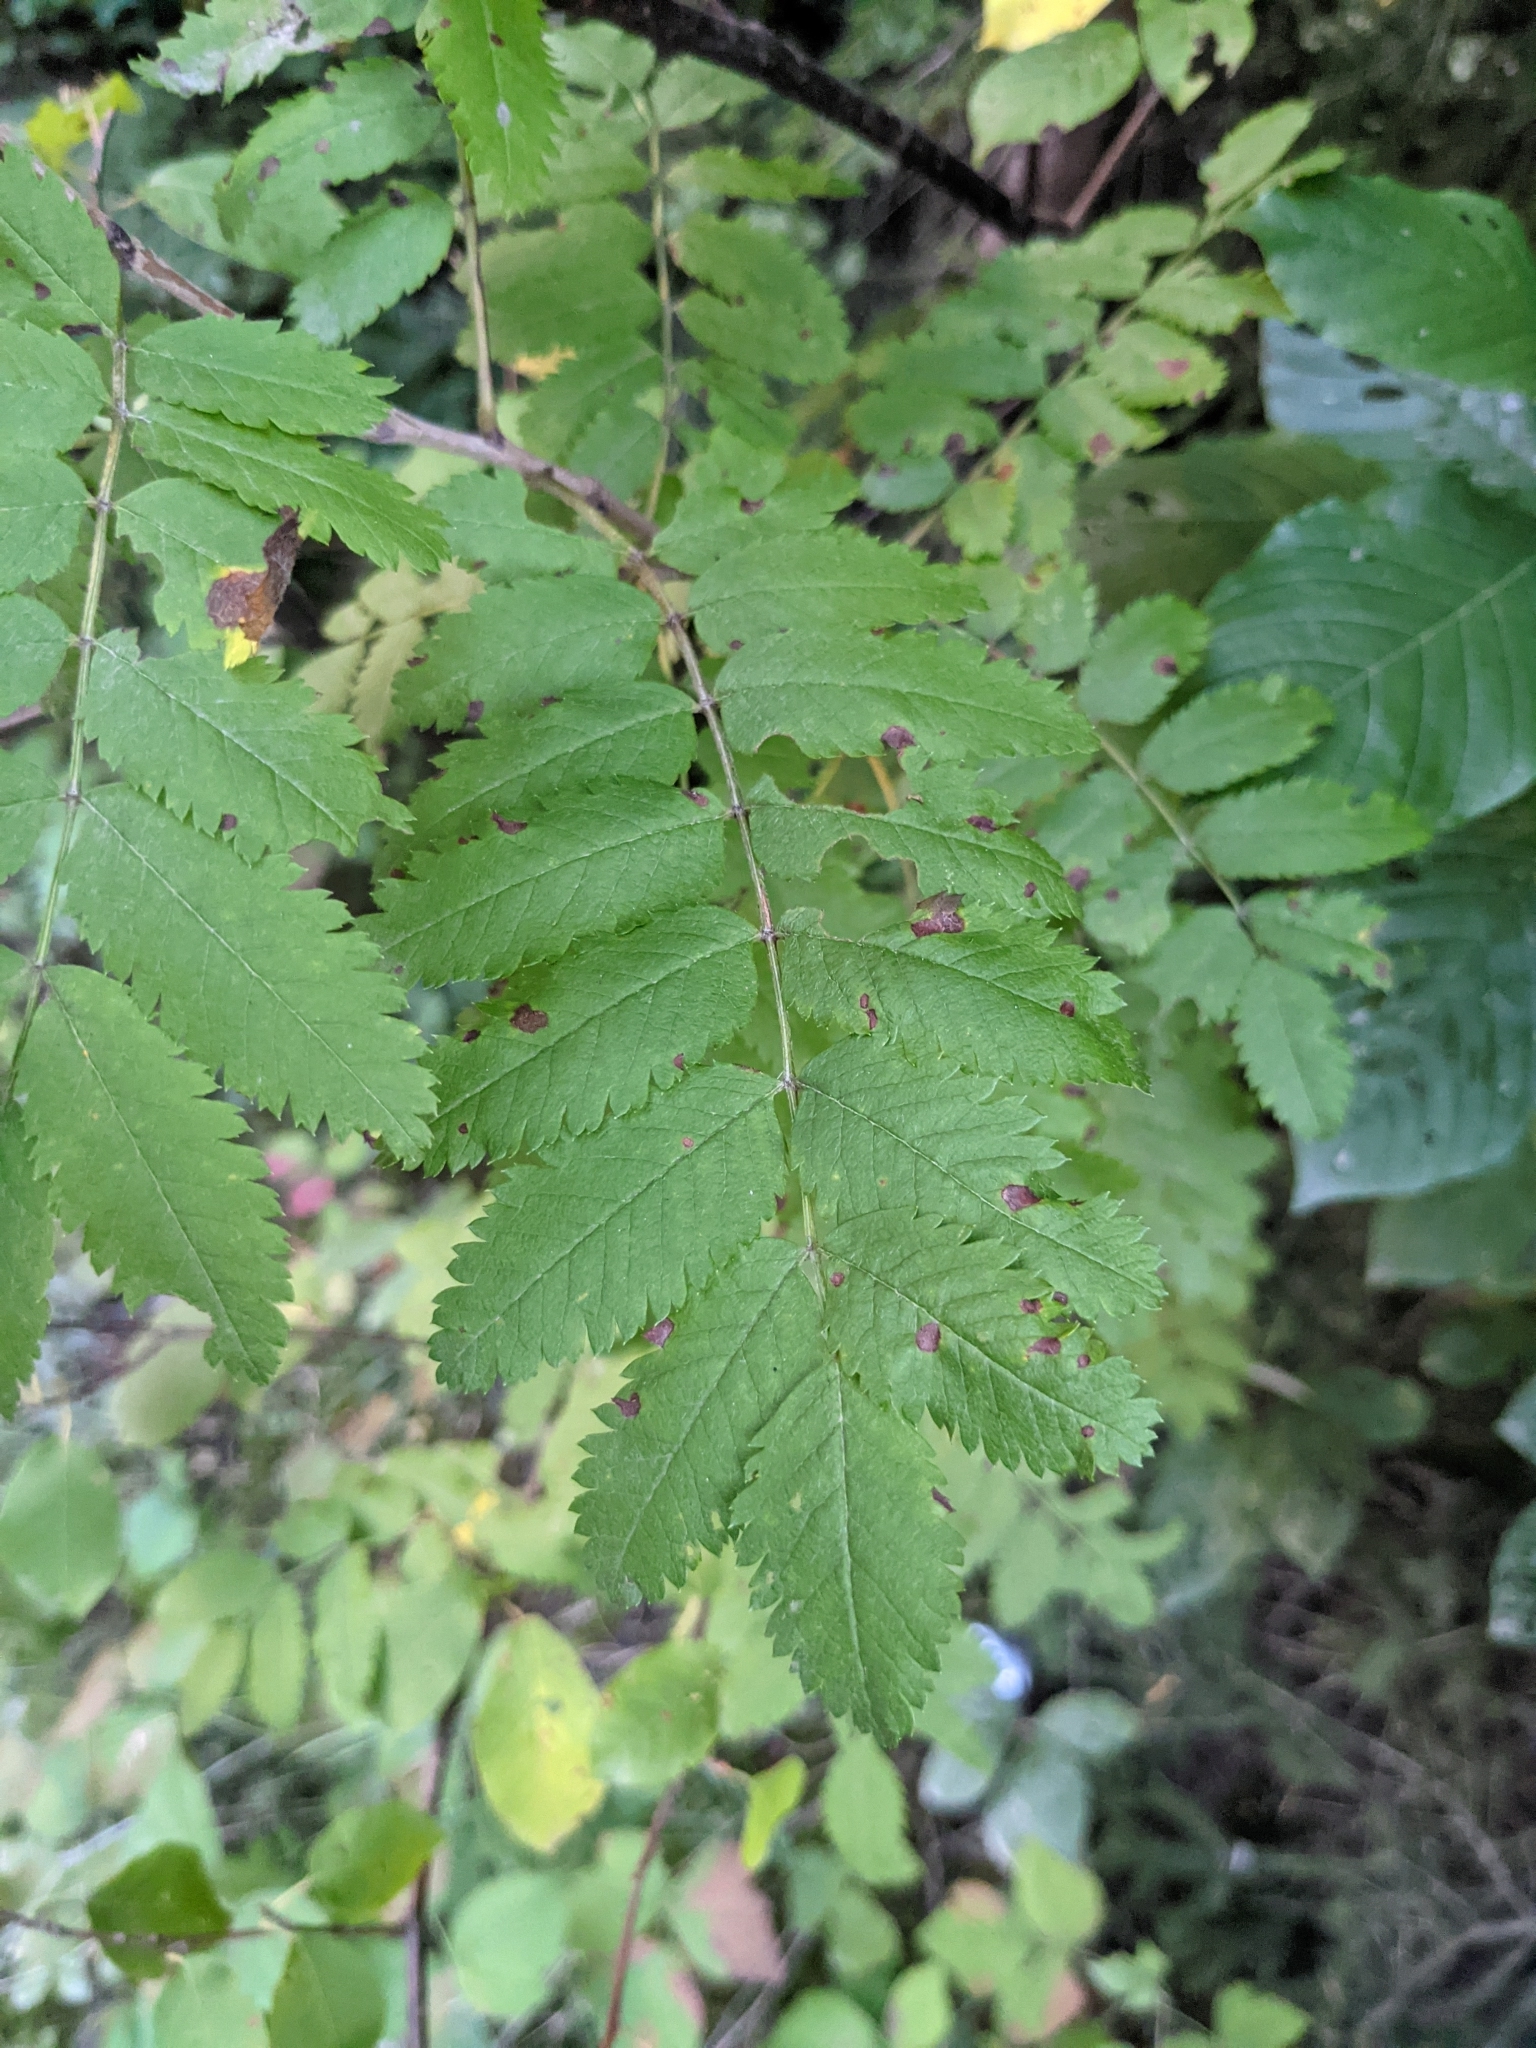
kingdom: Plantae
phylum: Tracheophyta
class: Magnoliopsida
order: Rosales
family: Rosaceae
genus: Sorbus
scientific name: Sorbus aucuparia
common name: Rowan
